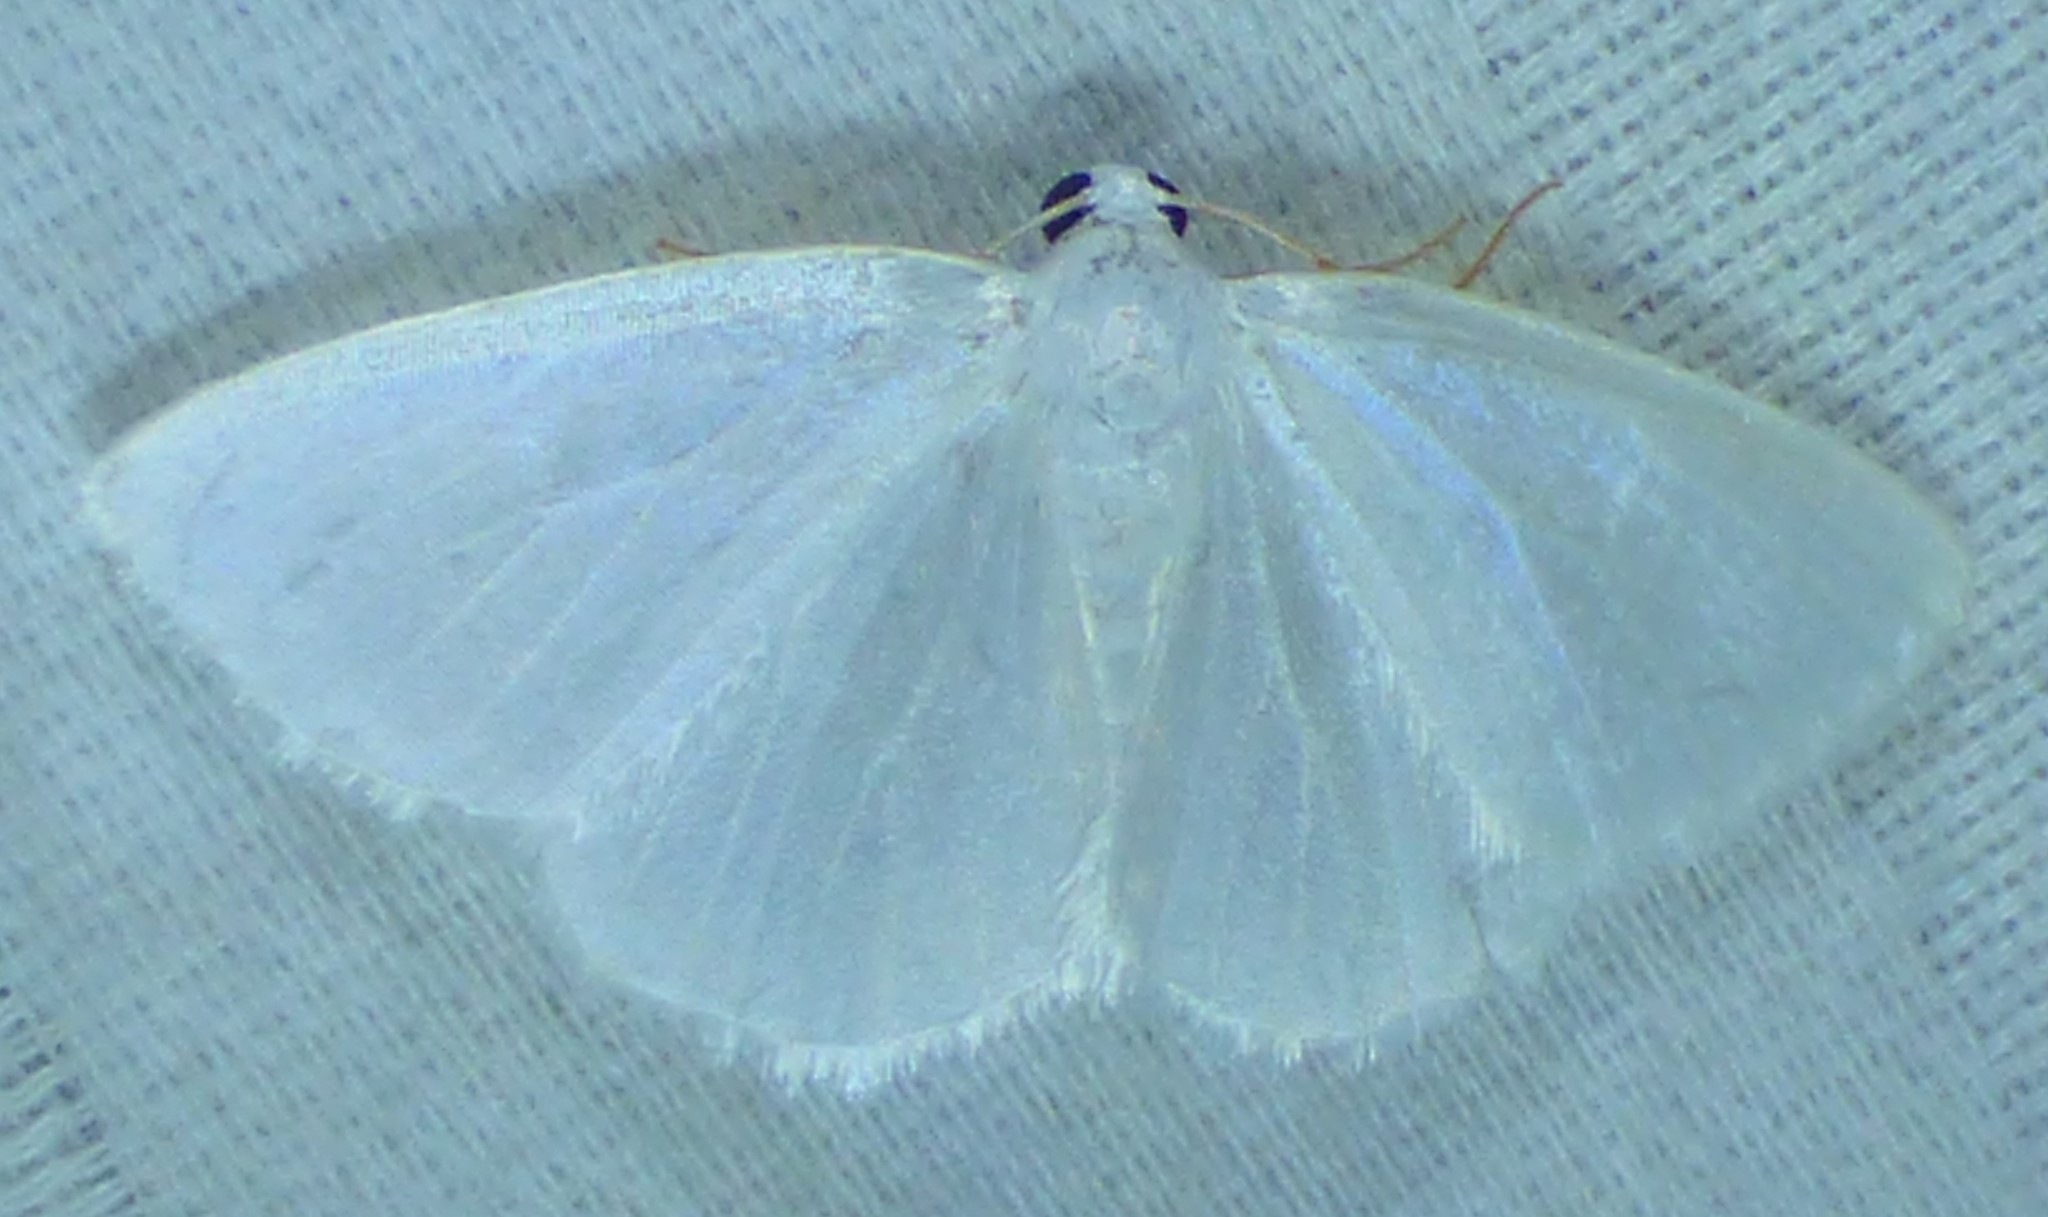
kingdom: Animalia
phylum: Arthropoda
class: Insecta
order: Lepidoptera
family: Geometridae
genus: Lomographa
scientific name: Lomographa vestaliata
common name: White spring moth
